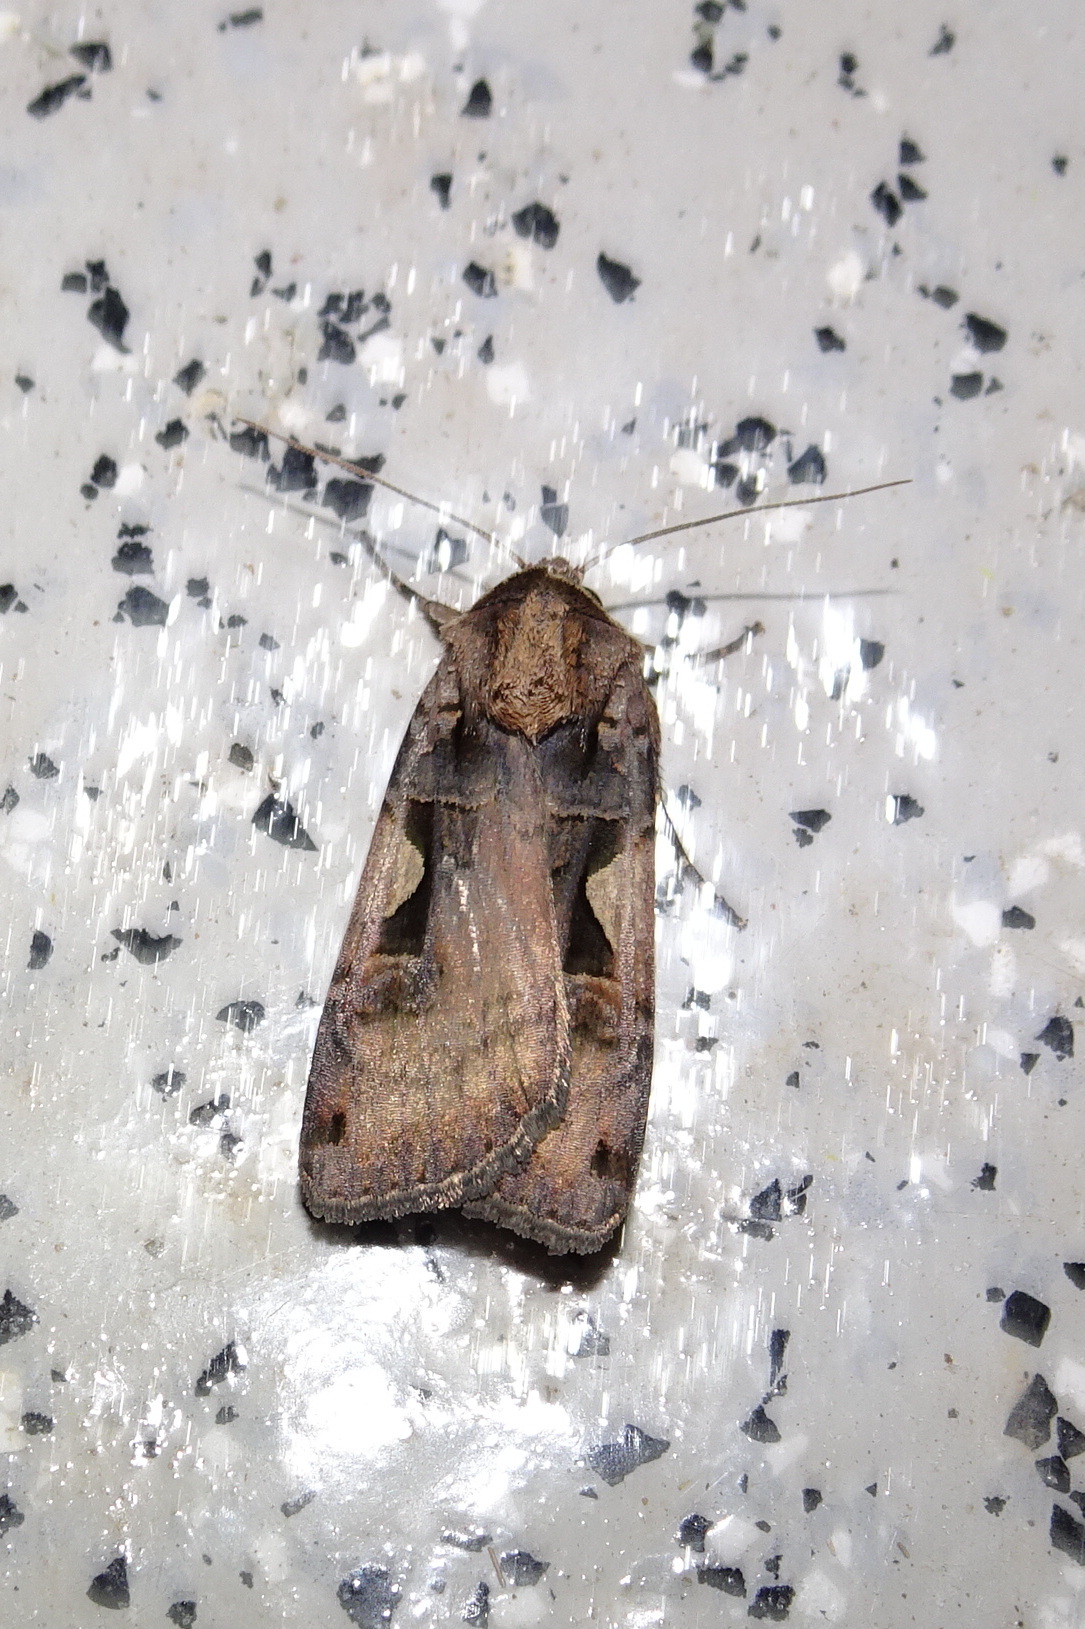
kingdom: Animalia
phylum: Arthropoda
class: Insecta
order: Lepidoptera
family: Noctuidae
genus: Xestia
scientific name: Xestia c-nigrum
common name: Setaceous hebrew character
